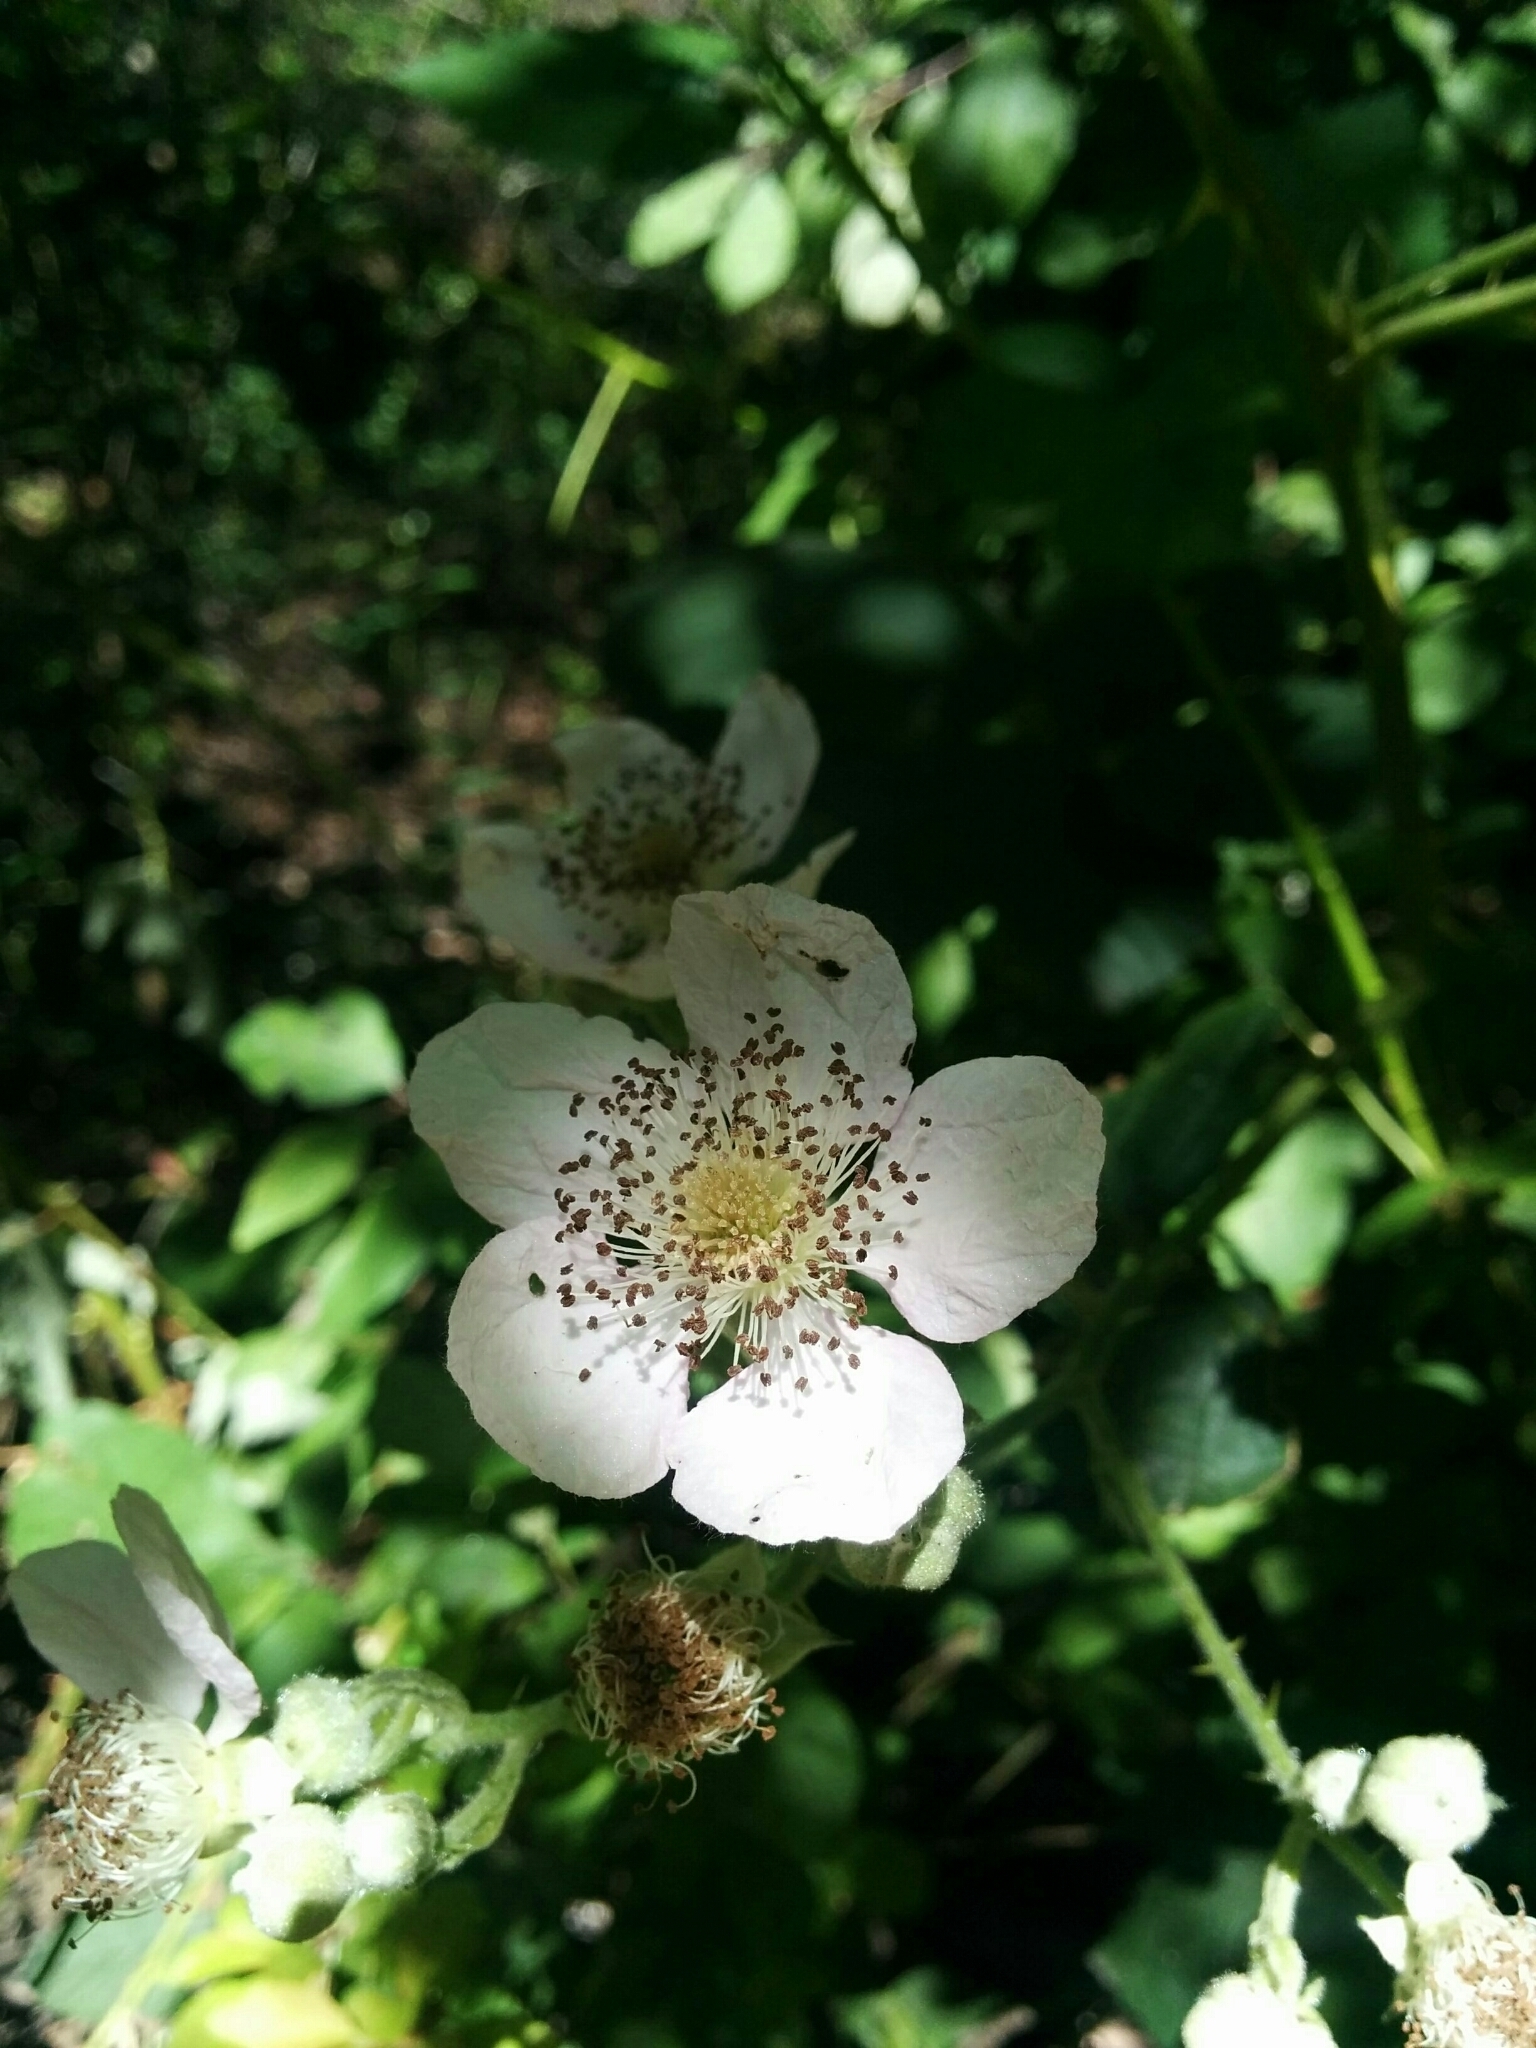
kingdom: Plantae
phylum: Tracheophyta
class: Magnoliopsida
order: Rosales
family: Rosaceae
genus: Rubus
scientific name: Rubus armeniacus
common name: Himalayan blackberry
